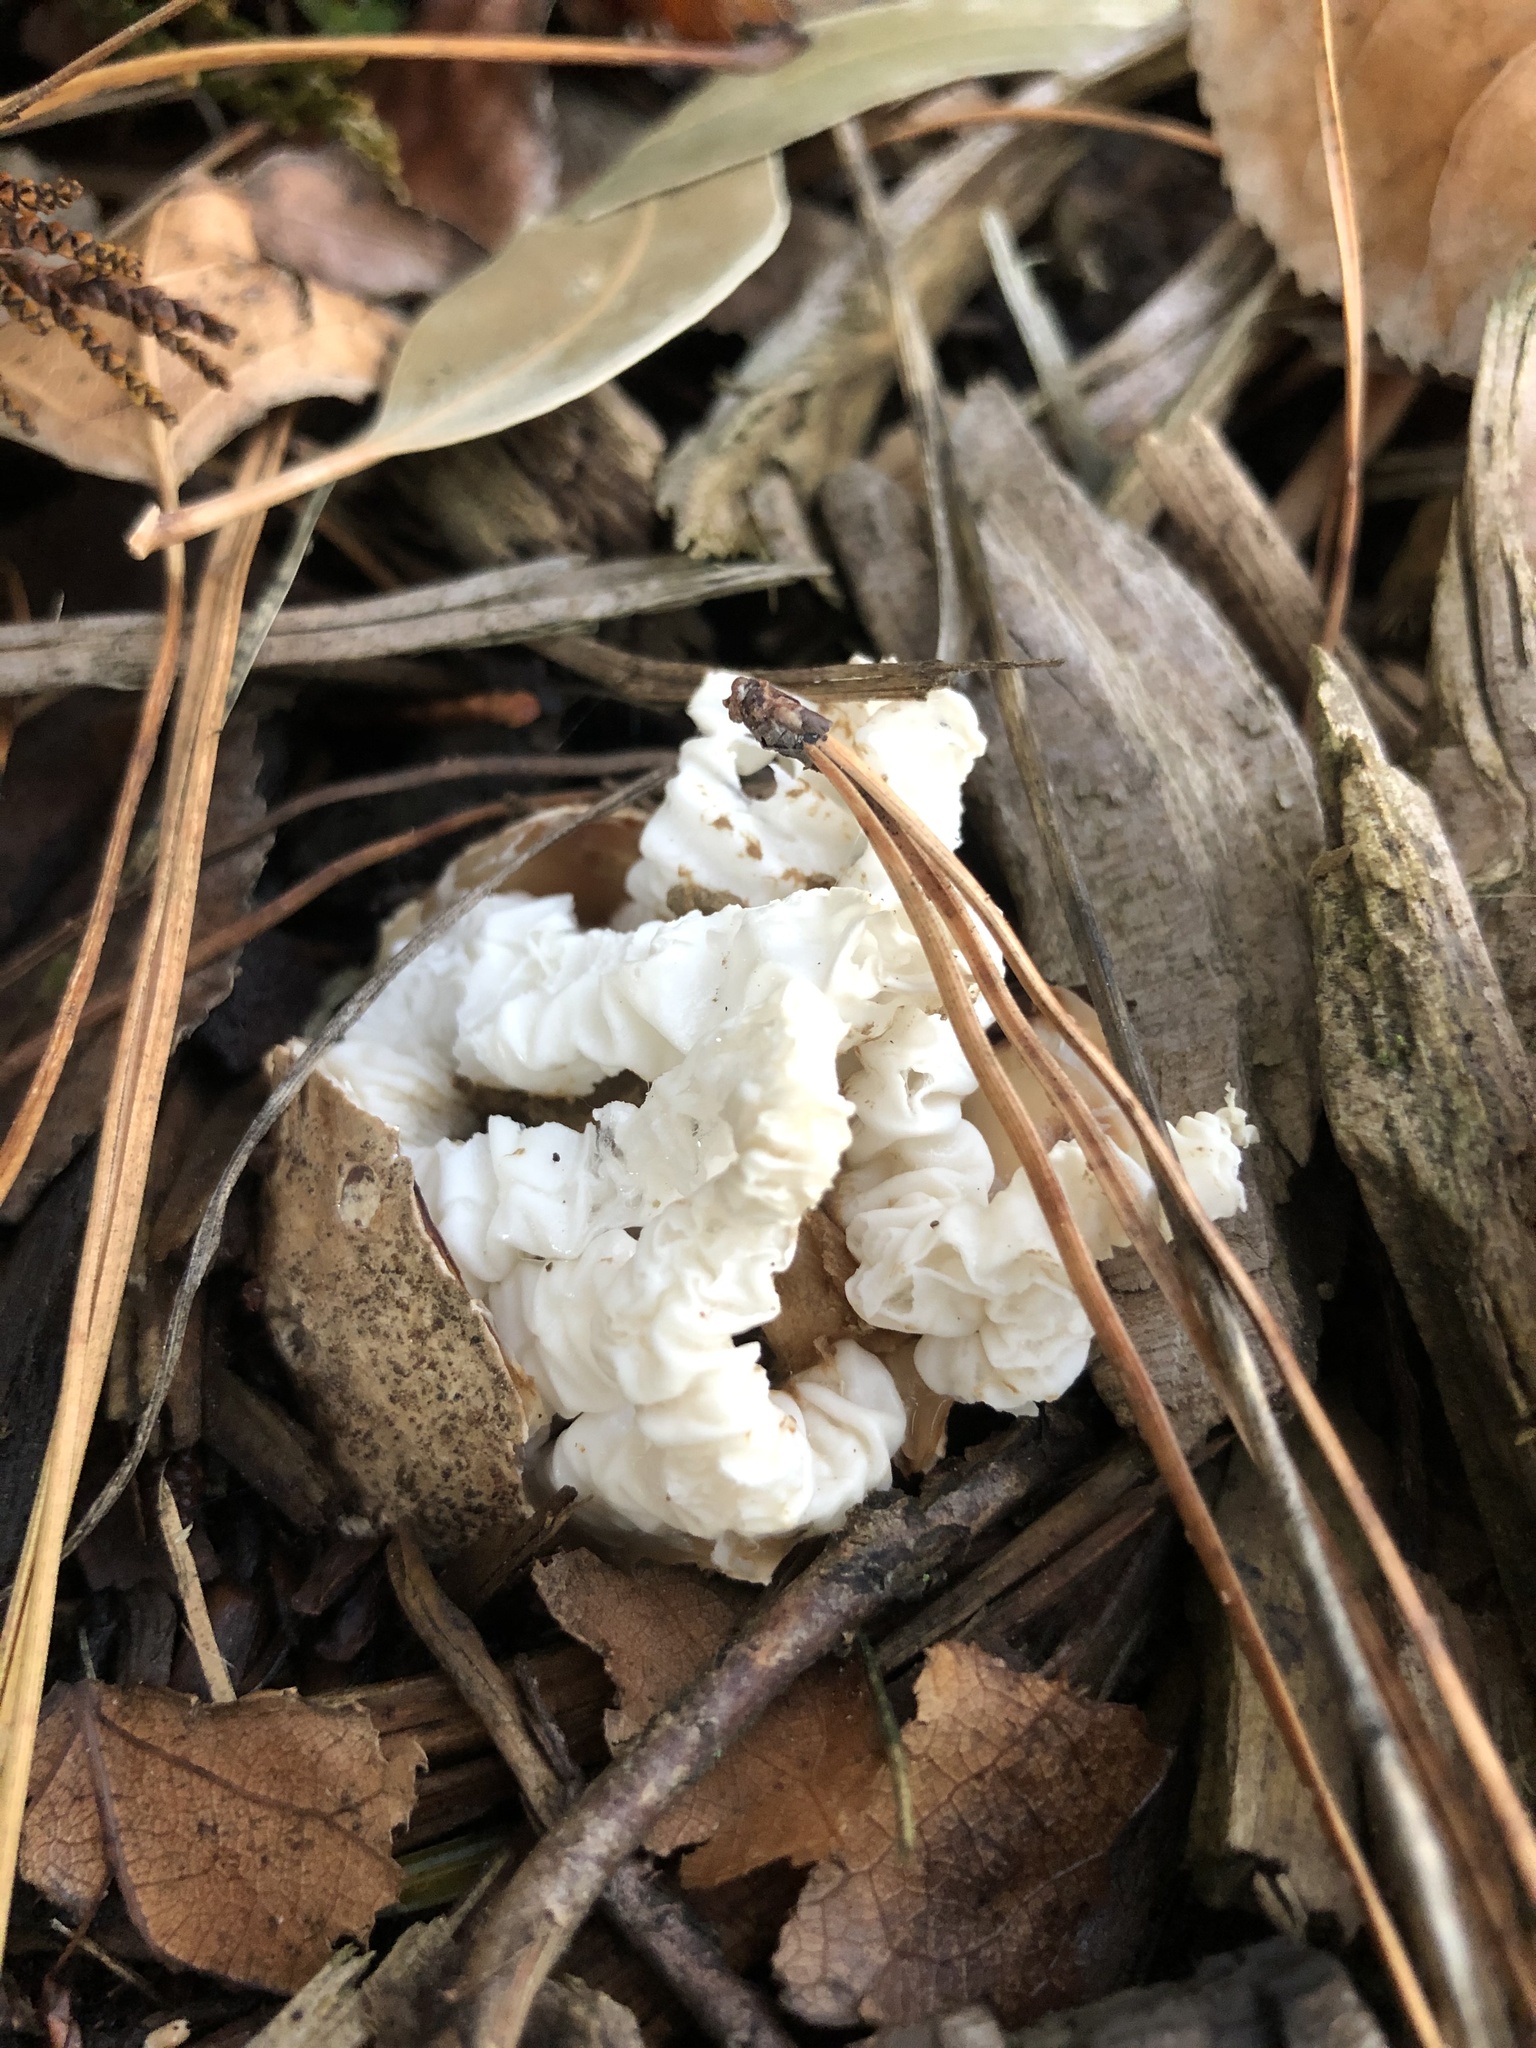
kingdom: Fungi
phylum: Basidiomycota
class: Agaricomycetes
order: Phallales
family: Phallaceae
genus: Ileodictyon
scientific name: Ileodictyon cibarium
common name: Basket fungus
